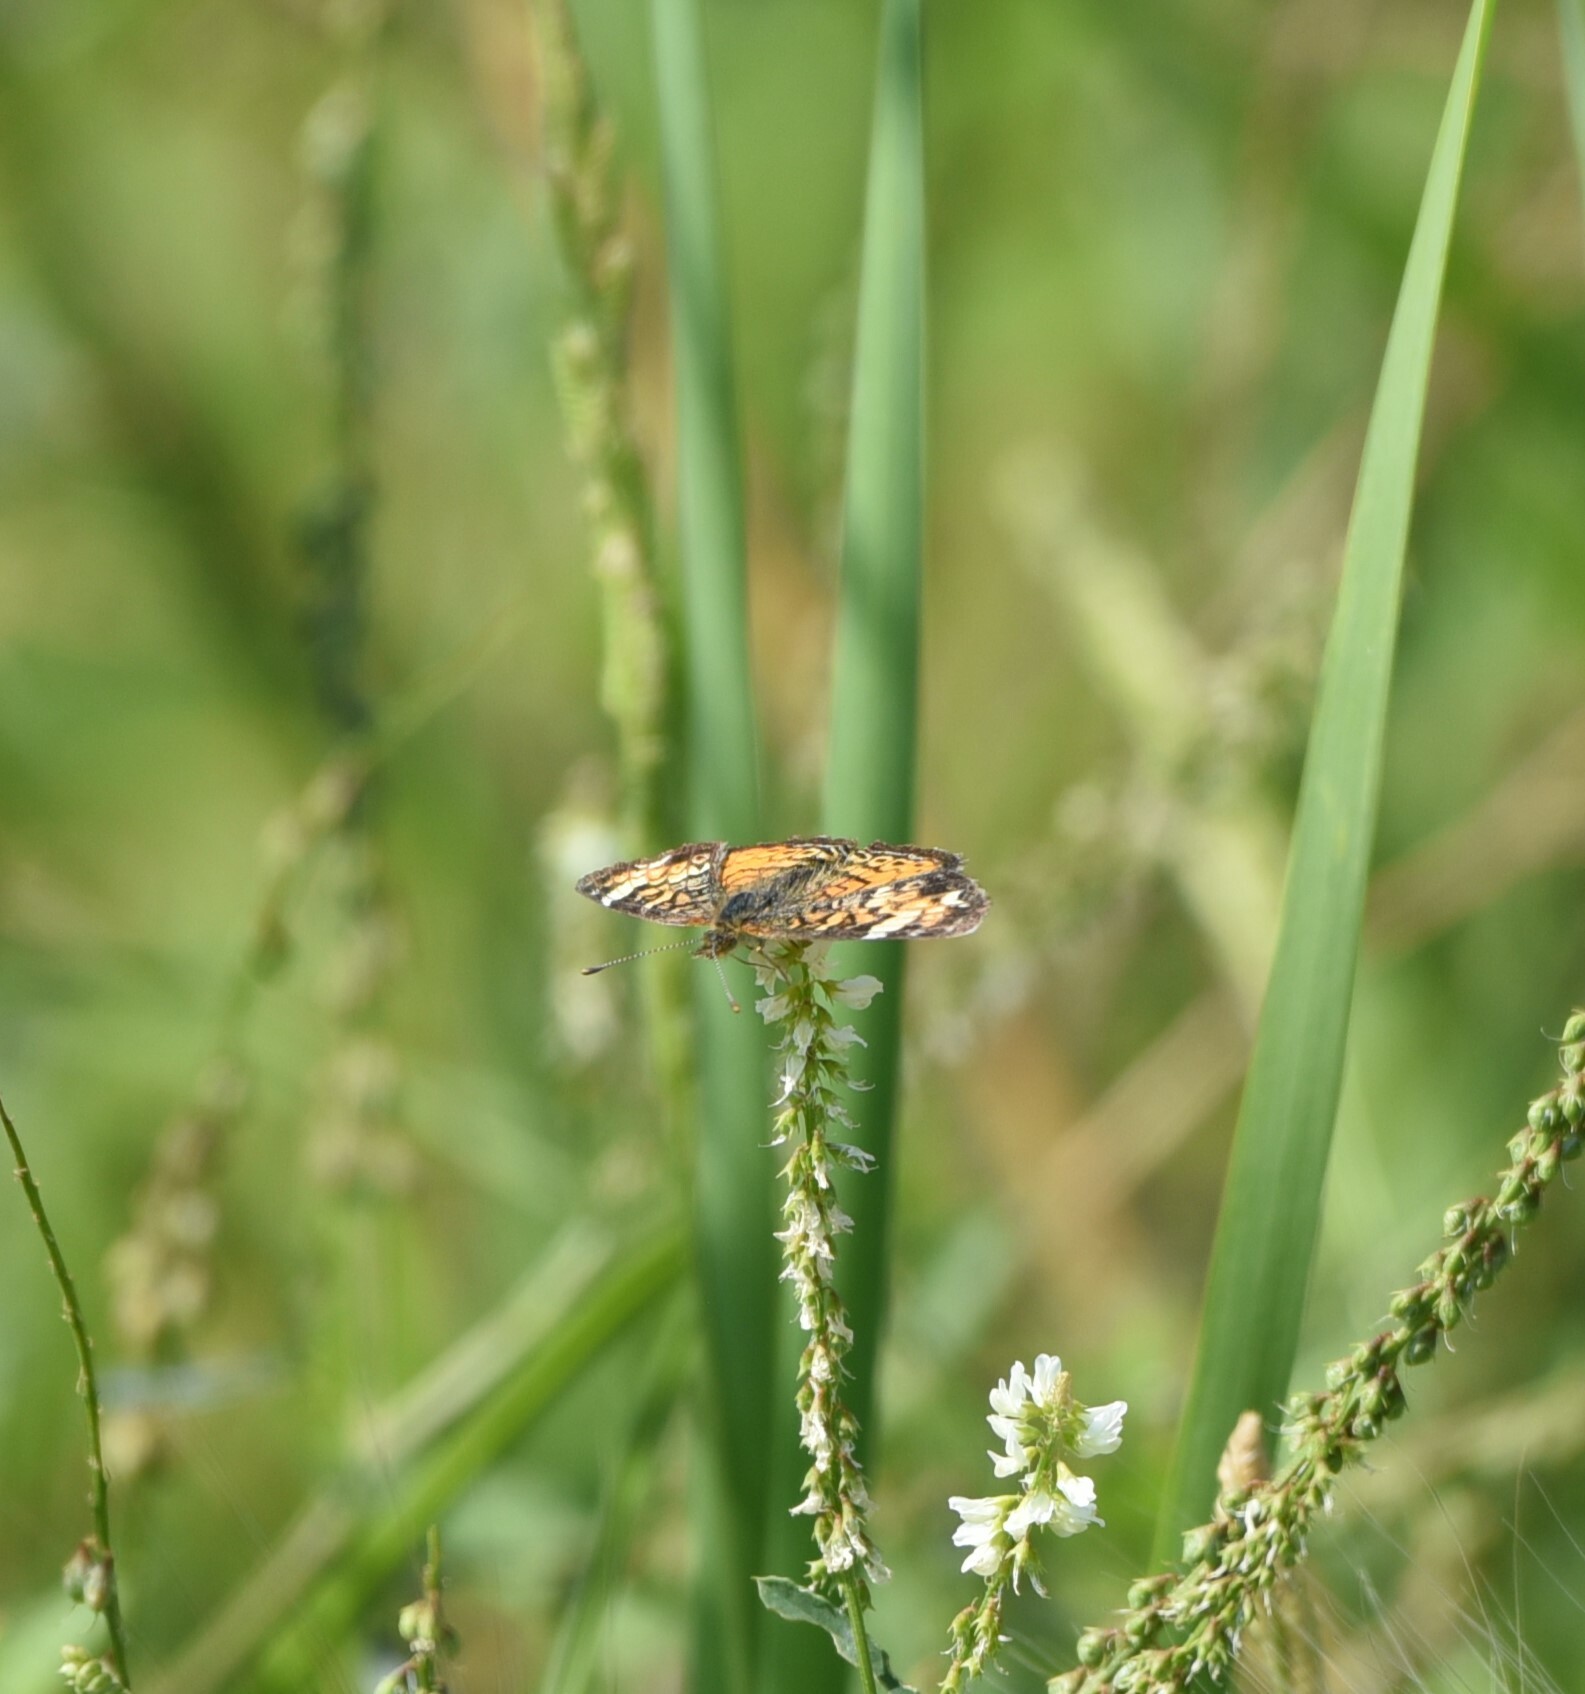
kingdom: Animalia
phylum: Arthropoda
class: Insecta
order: Lepidoptera
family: Nymphalidae
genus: Phyciodes
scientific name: Phyciodes tharos
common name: Pearl crescent
